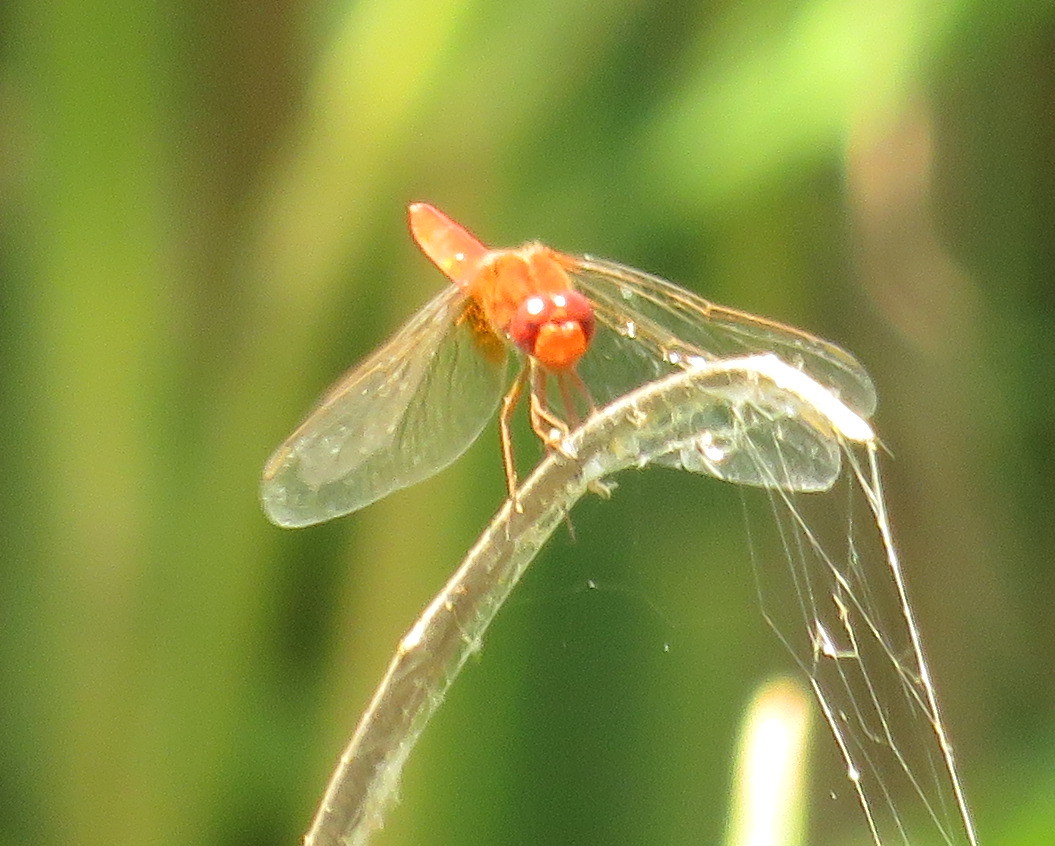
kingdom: Animalia
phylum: Arthropoda
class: Insecta
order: Odonata
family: Libellulidae
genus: Crocothemis
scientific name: Crocothemis erythraea
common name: Scarlet dragonfly
